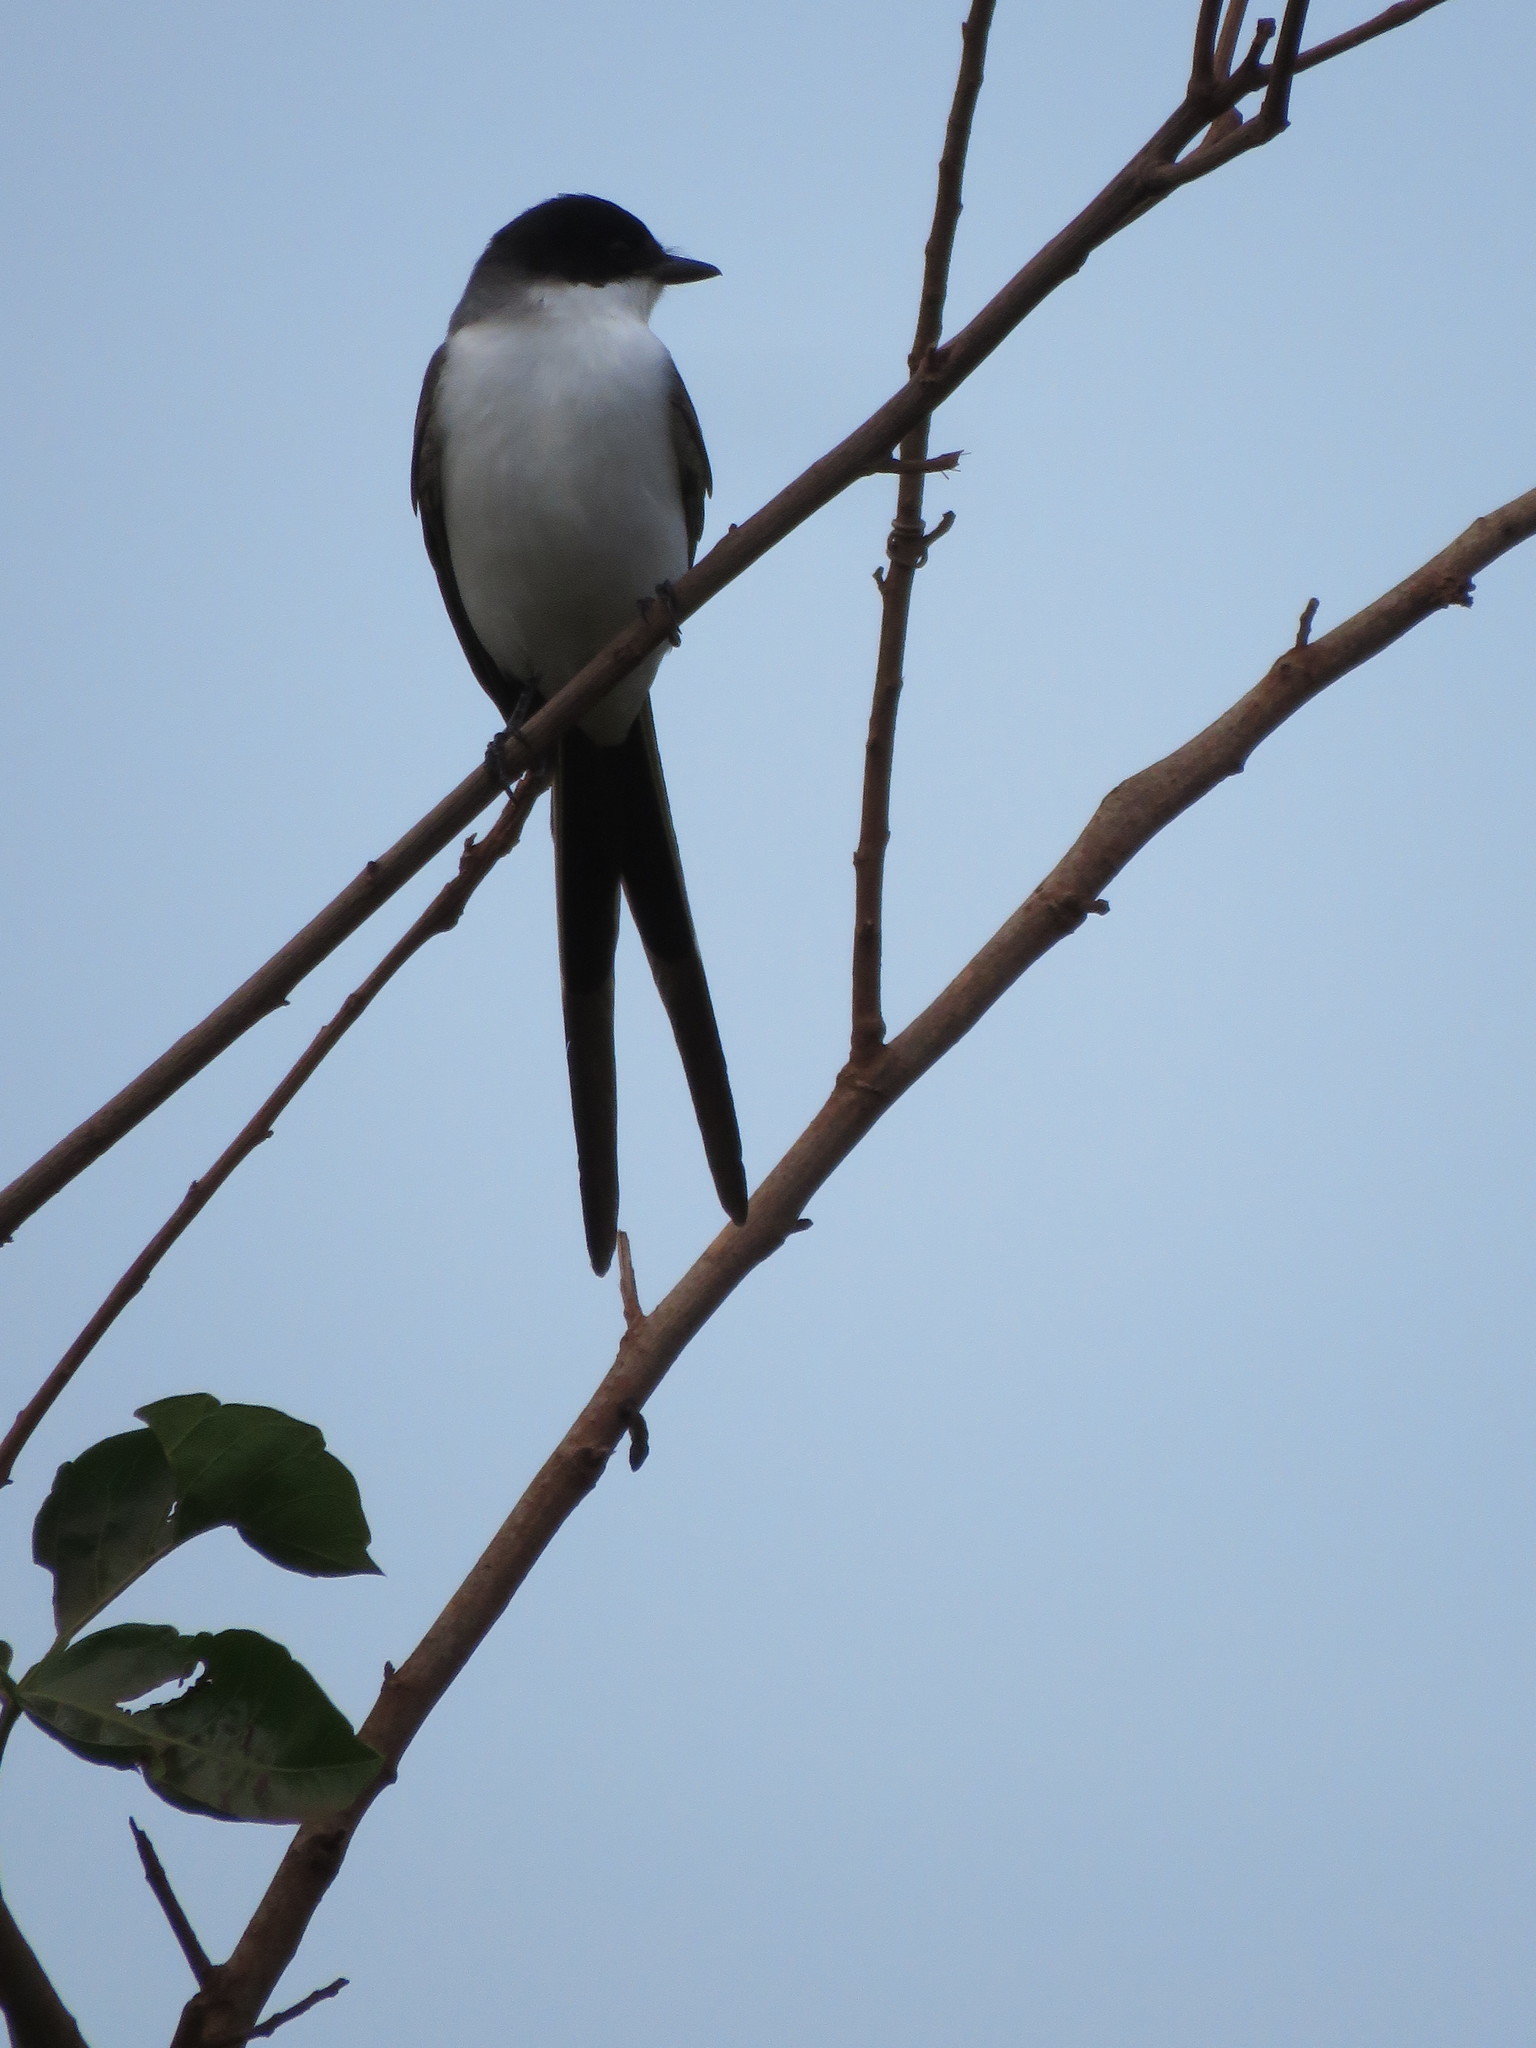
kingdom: Animalia
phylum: Chordata
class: Aves
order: Passeriformes
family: Tyrannidae
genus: Tyrannus
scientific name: Tyrannus savana
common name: Fork-tailed flycatcher
